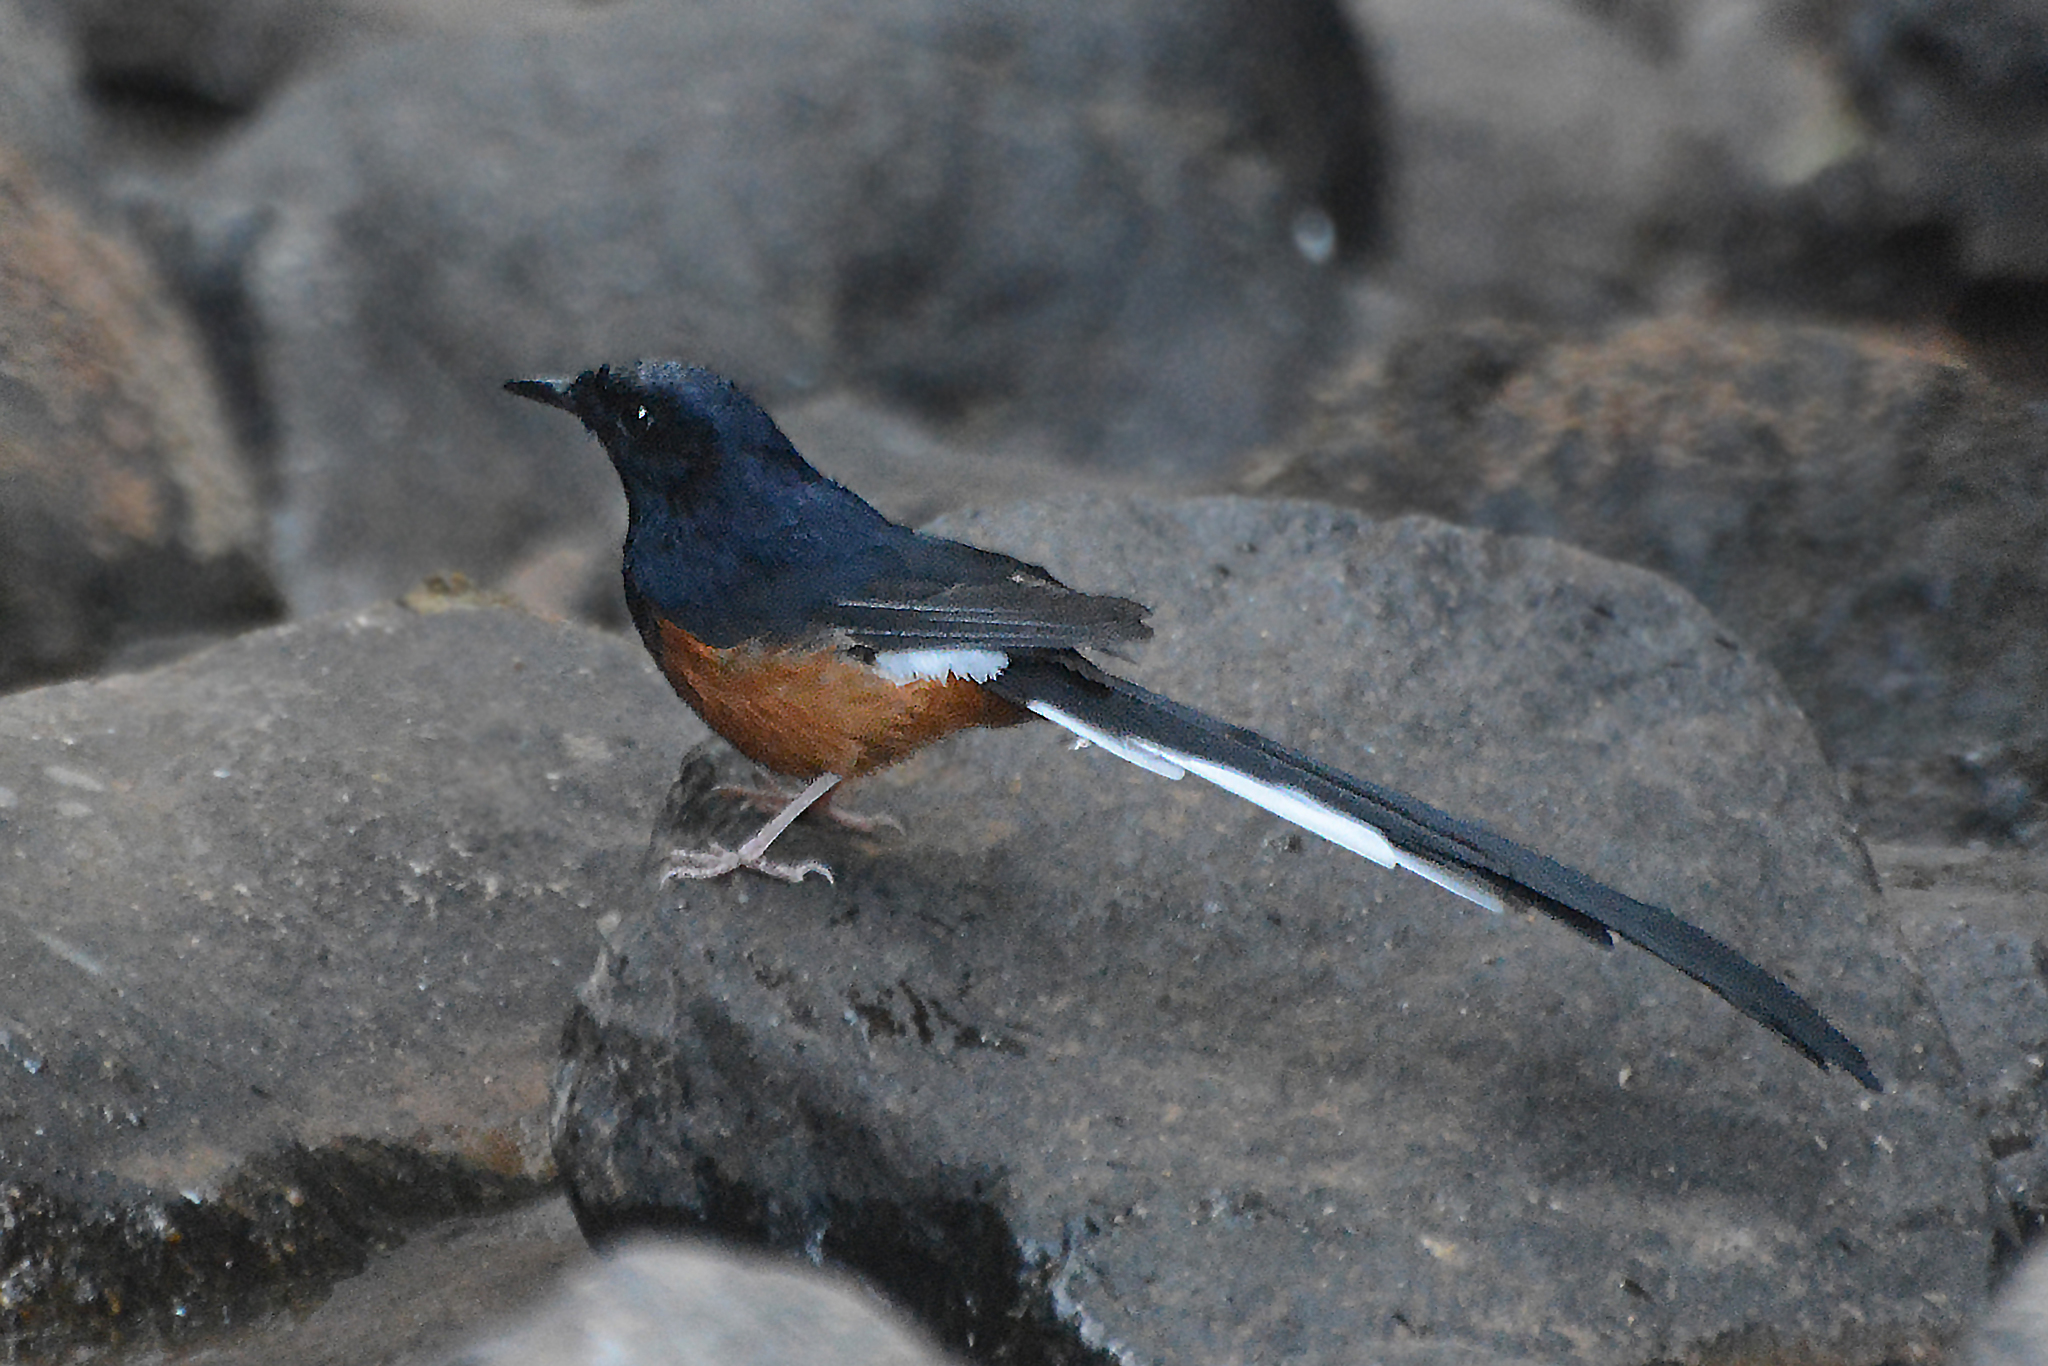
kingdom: Animalia
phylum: Chordata
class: Aves
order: Passeriformes
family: Muscicapidae
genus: Copsychus
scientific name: Copsychus malabaricus
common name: White-rumped shama
